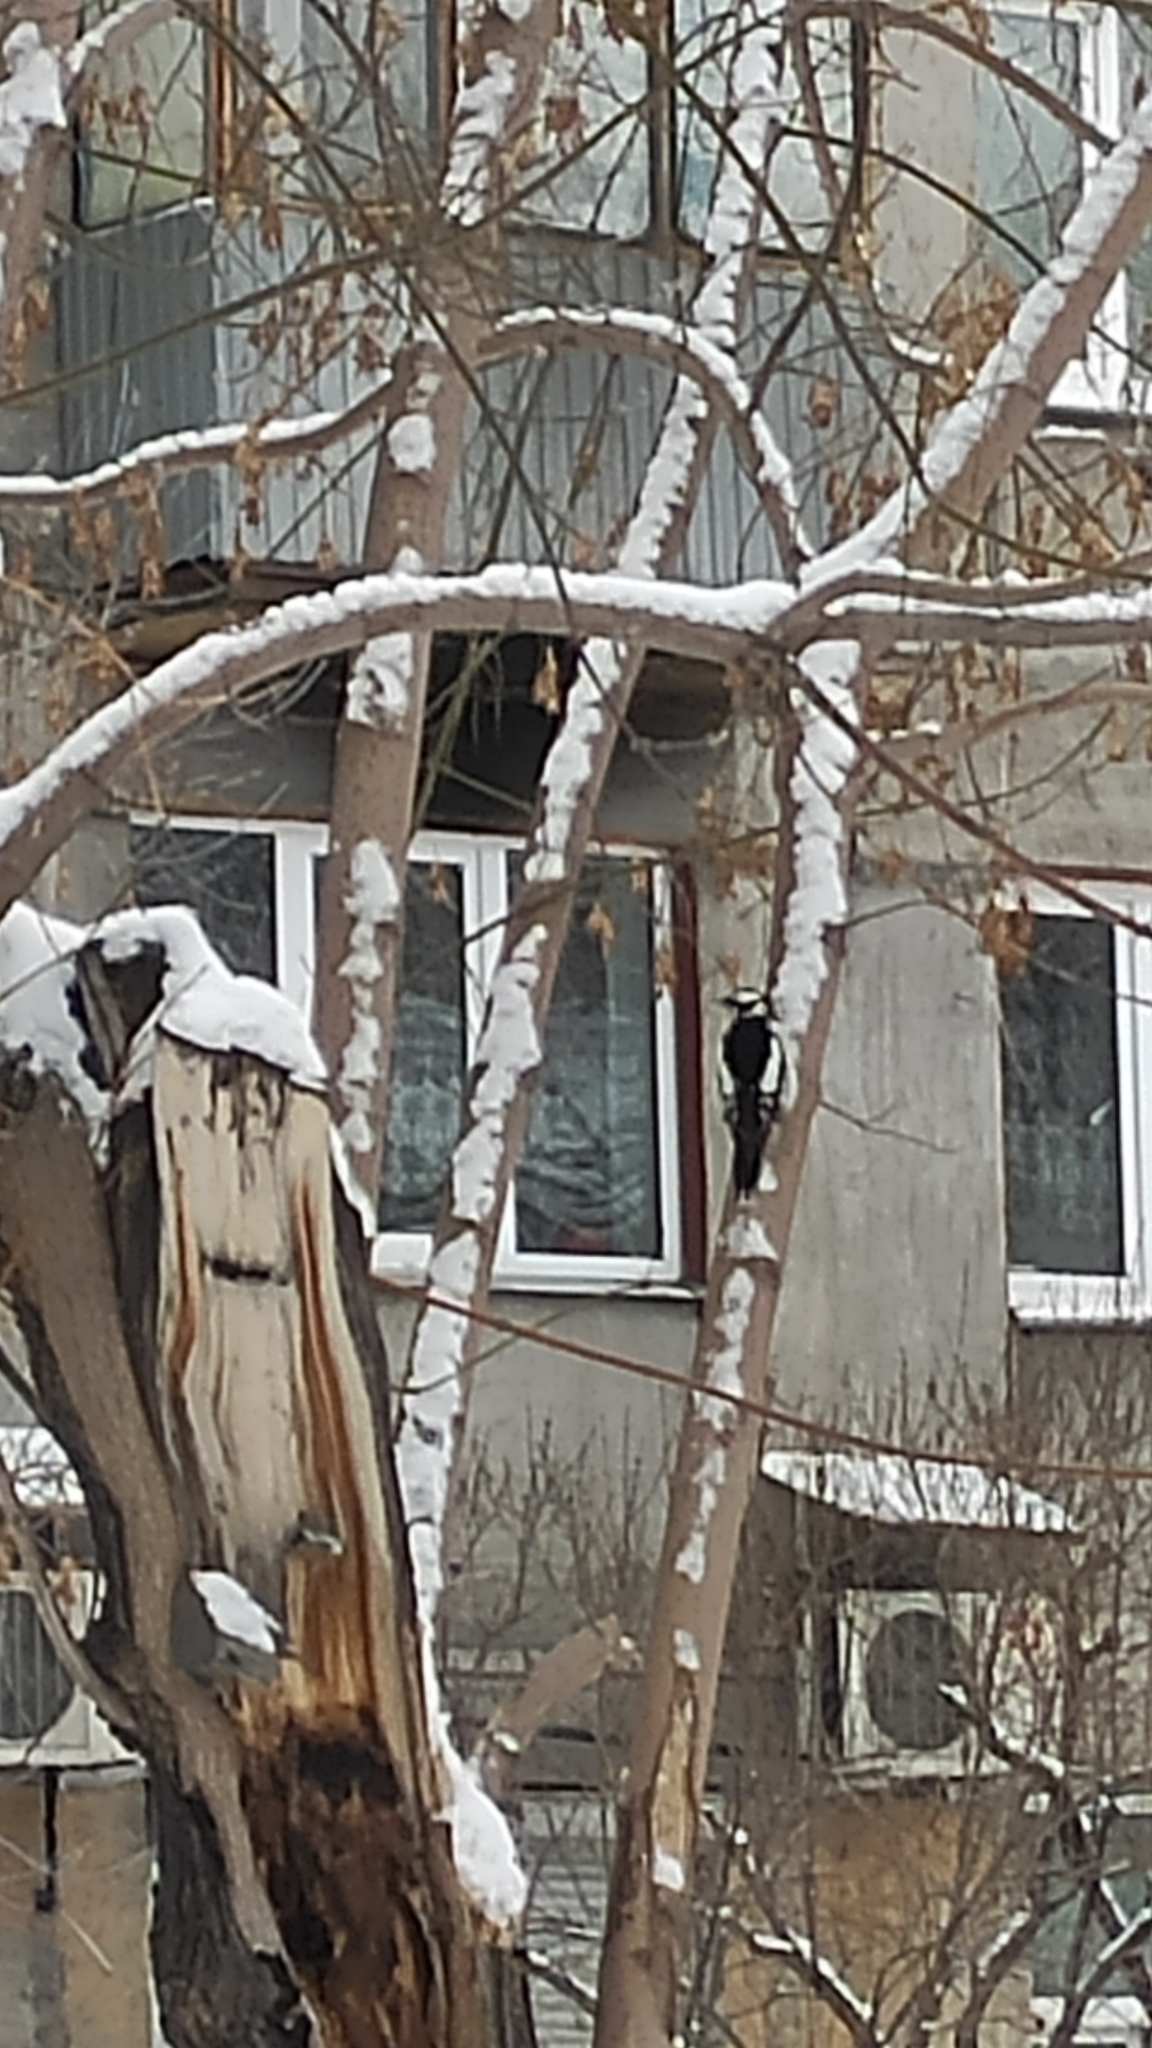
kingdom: Animalia
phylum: Chordata
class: Aves
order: Piciformes
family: Picidae
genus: Dendrocopos
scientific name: Dendrocopos major
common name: Great spotted woodpecker
